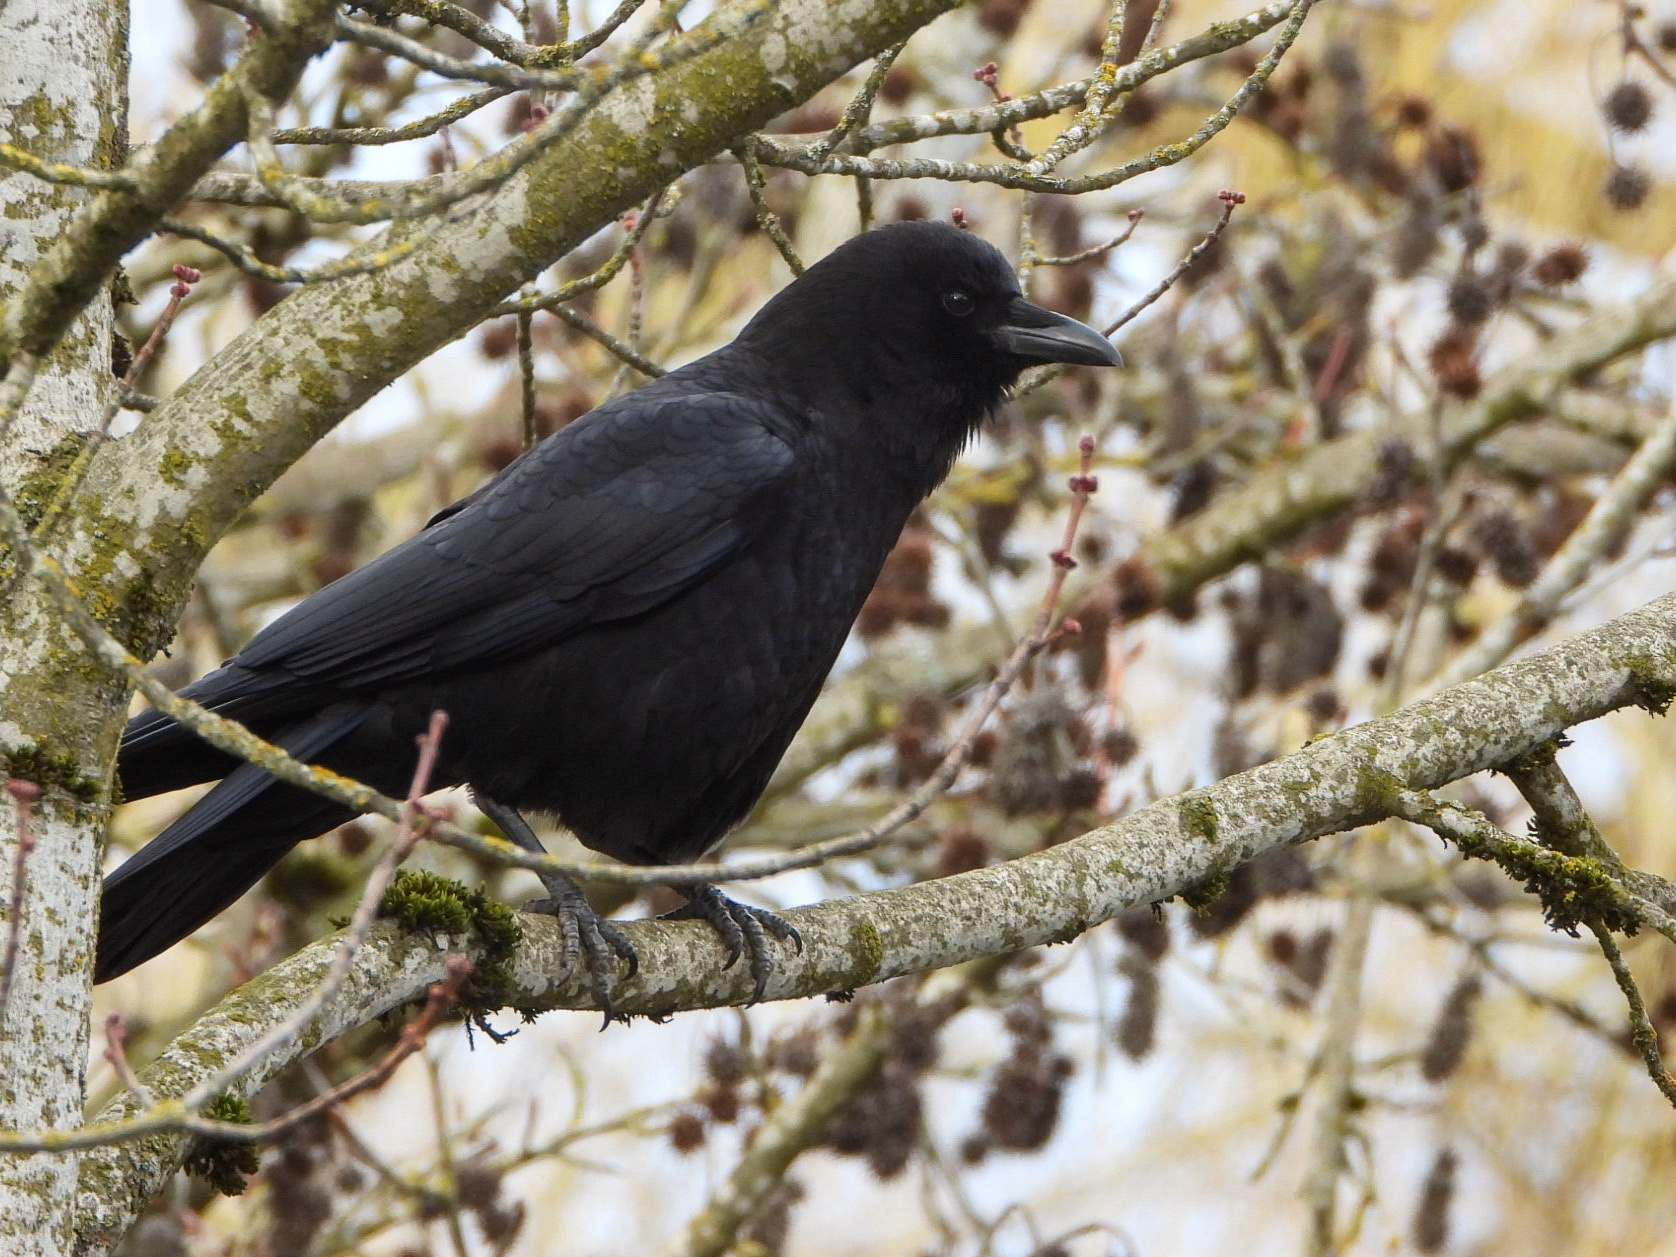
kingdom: Animalia
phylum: Chordata
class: Aves
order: Passeriformes
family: Corvidae
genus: Corvus
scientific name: Corvus brachyrhynchos
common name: American crow
